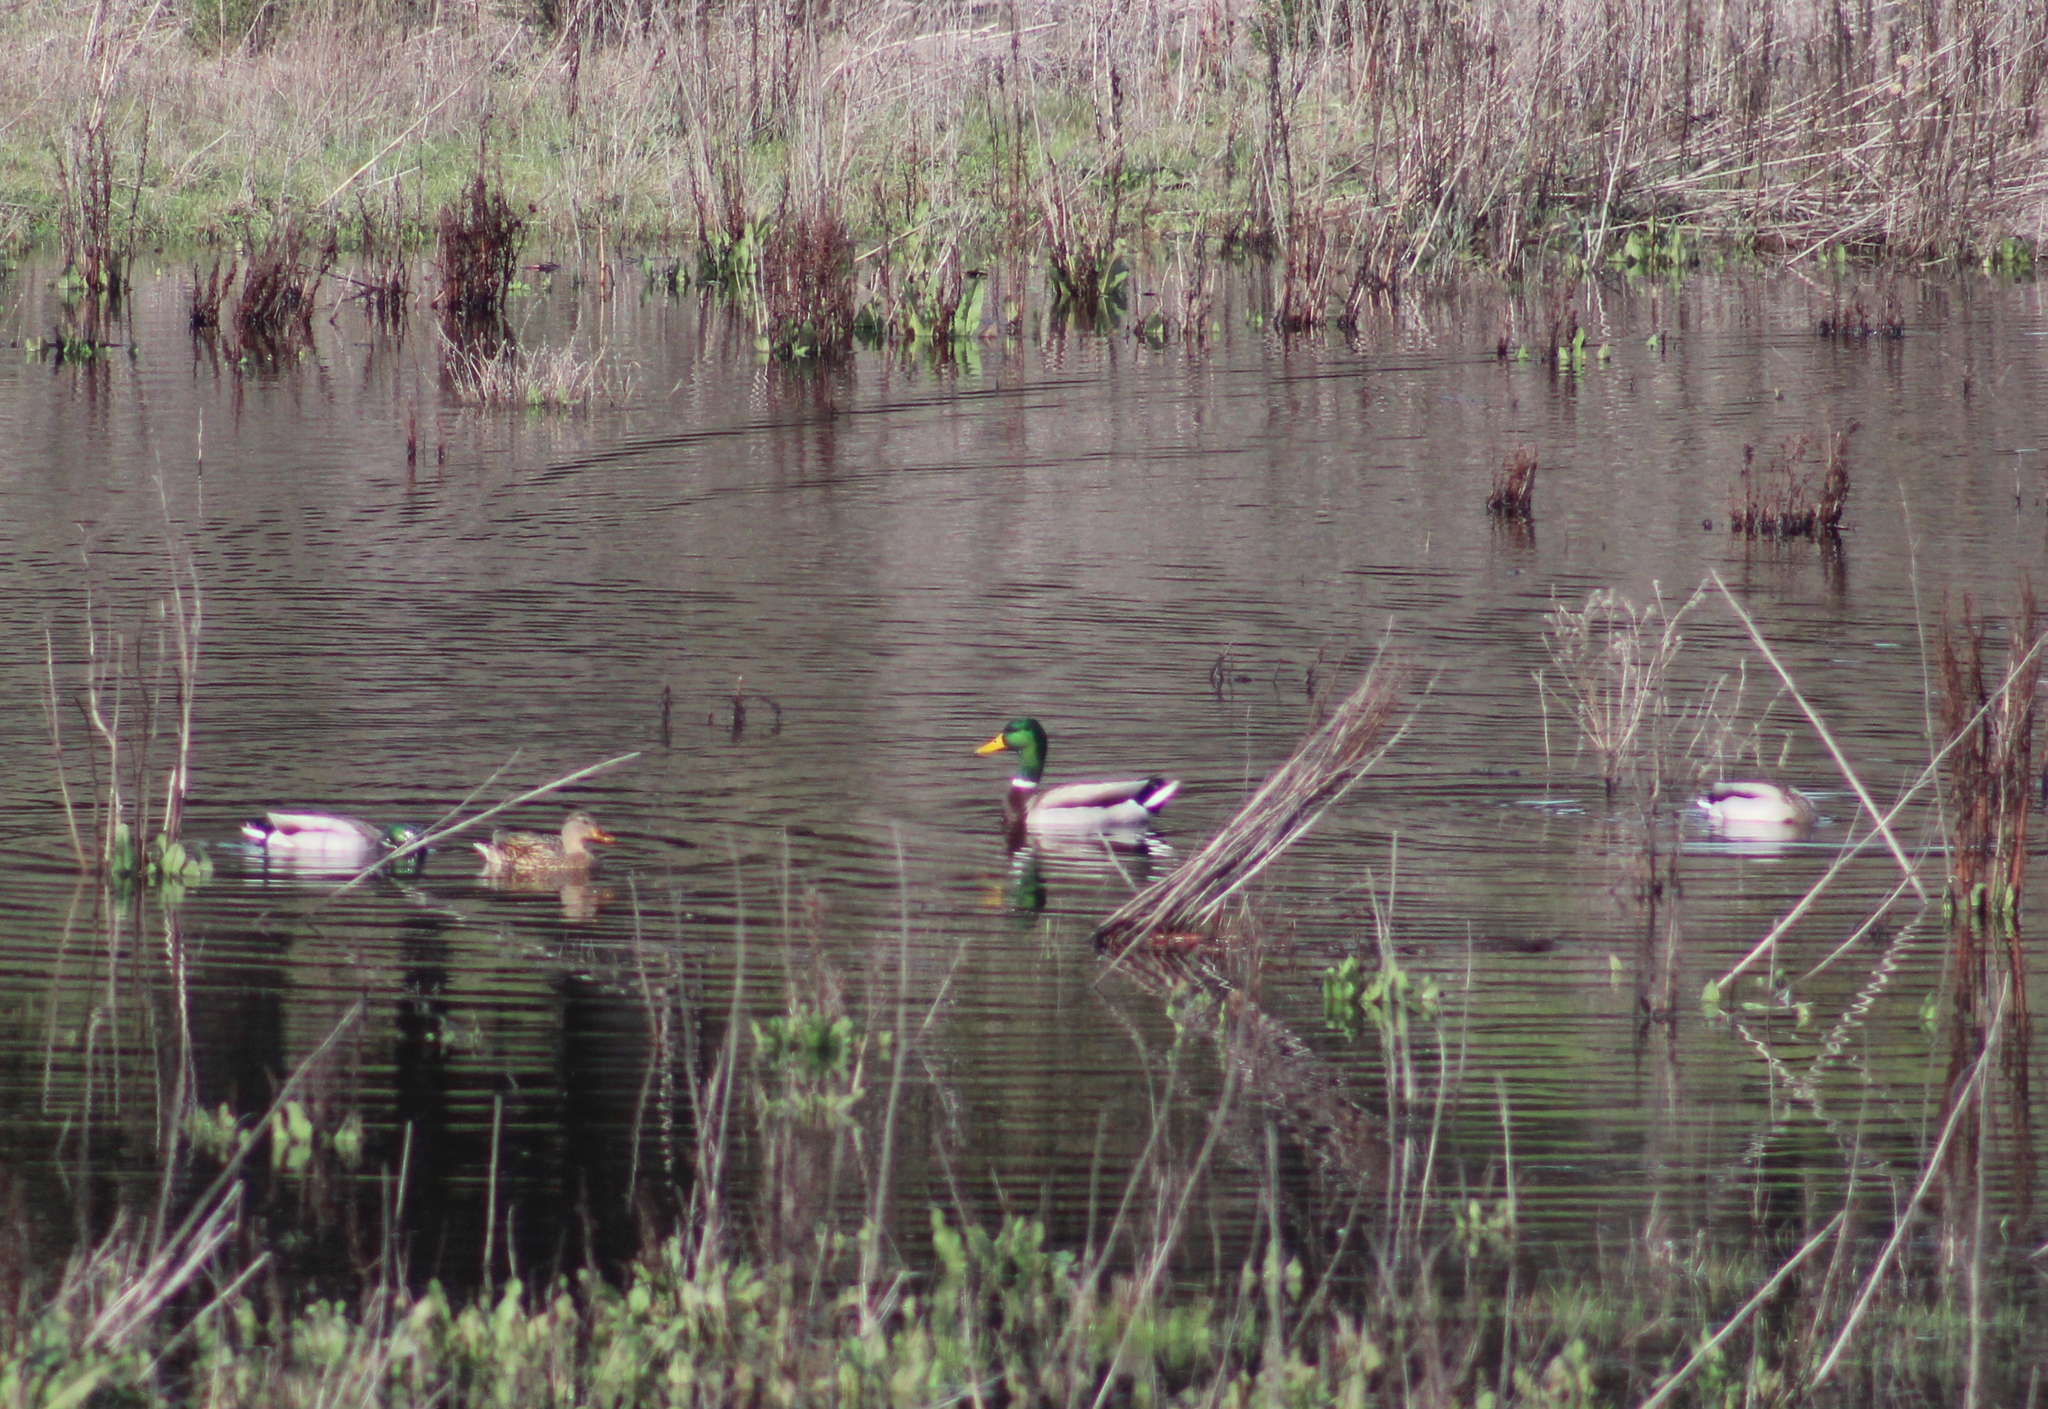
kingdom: Animalia
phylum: Chordata
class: Aves
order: Anseriformes
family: Anatidae
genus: Anas
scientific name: Anas platyrhynchos
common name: Mallard
